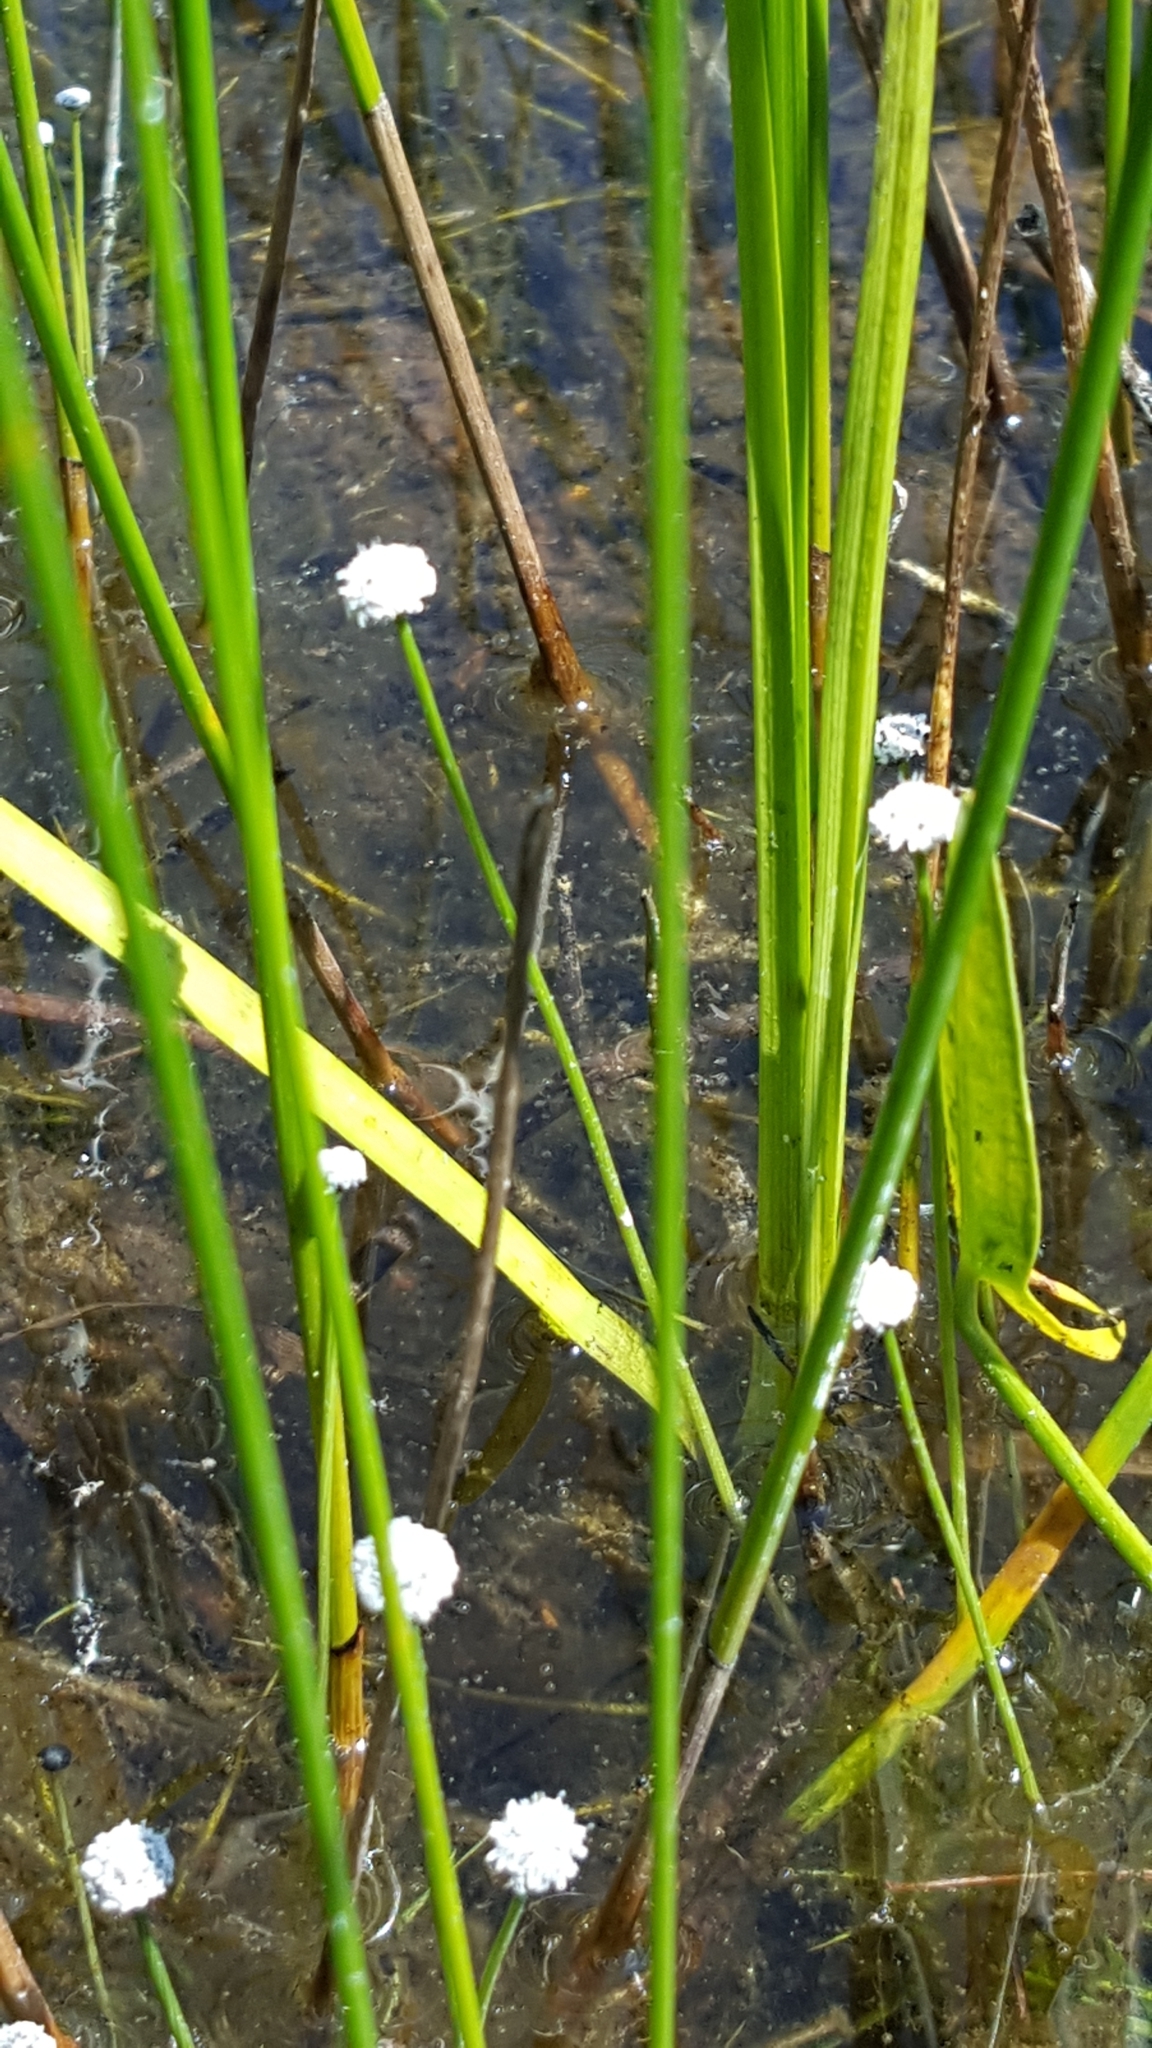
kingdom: Plantae
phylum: Tracheophyta
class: Liliopsida
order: Poales
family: Eriocaulaceae
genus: Eriocaulon
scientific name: Eriocaulon aquaticum
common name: Pipewort
